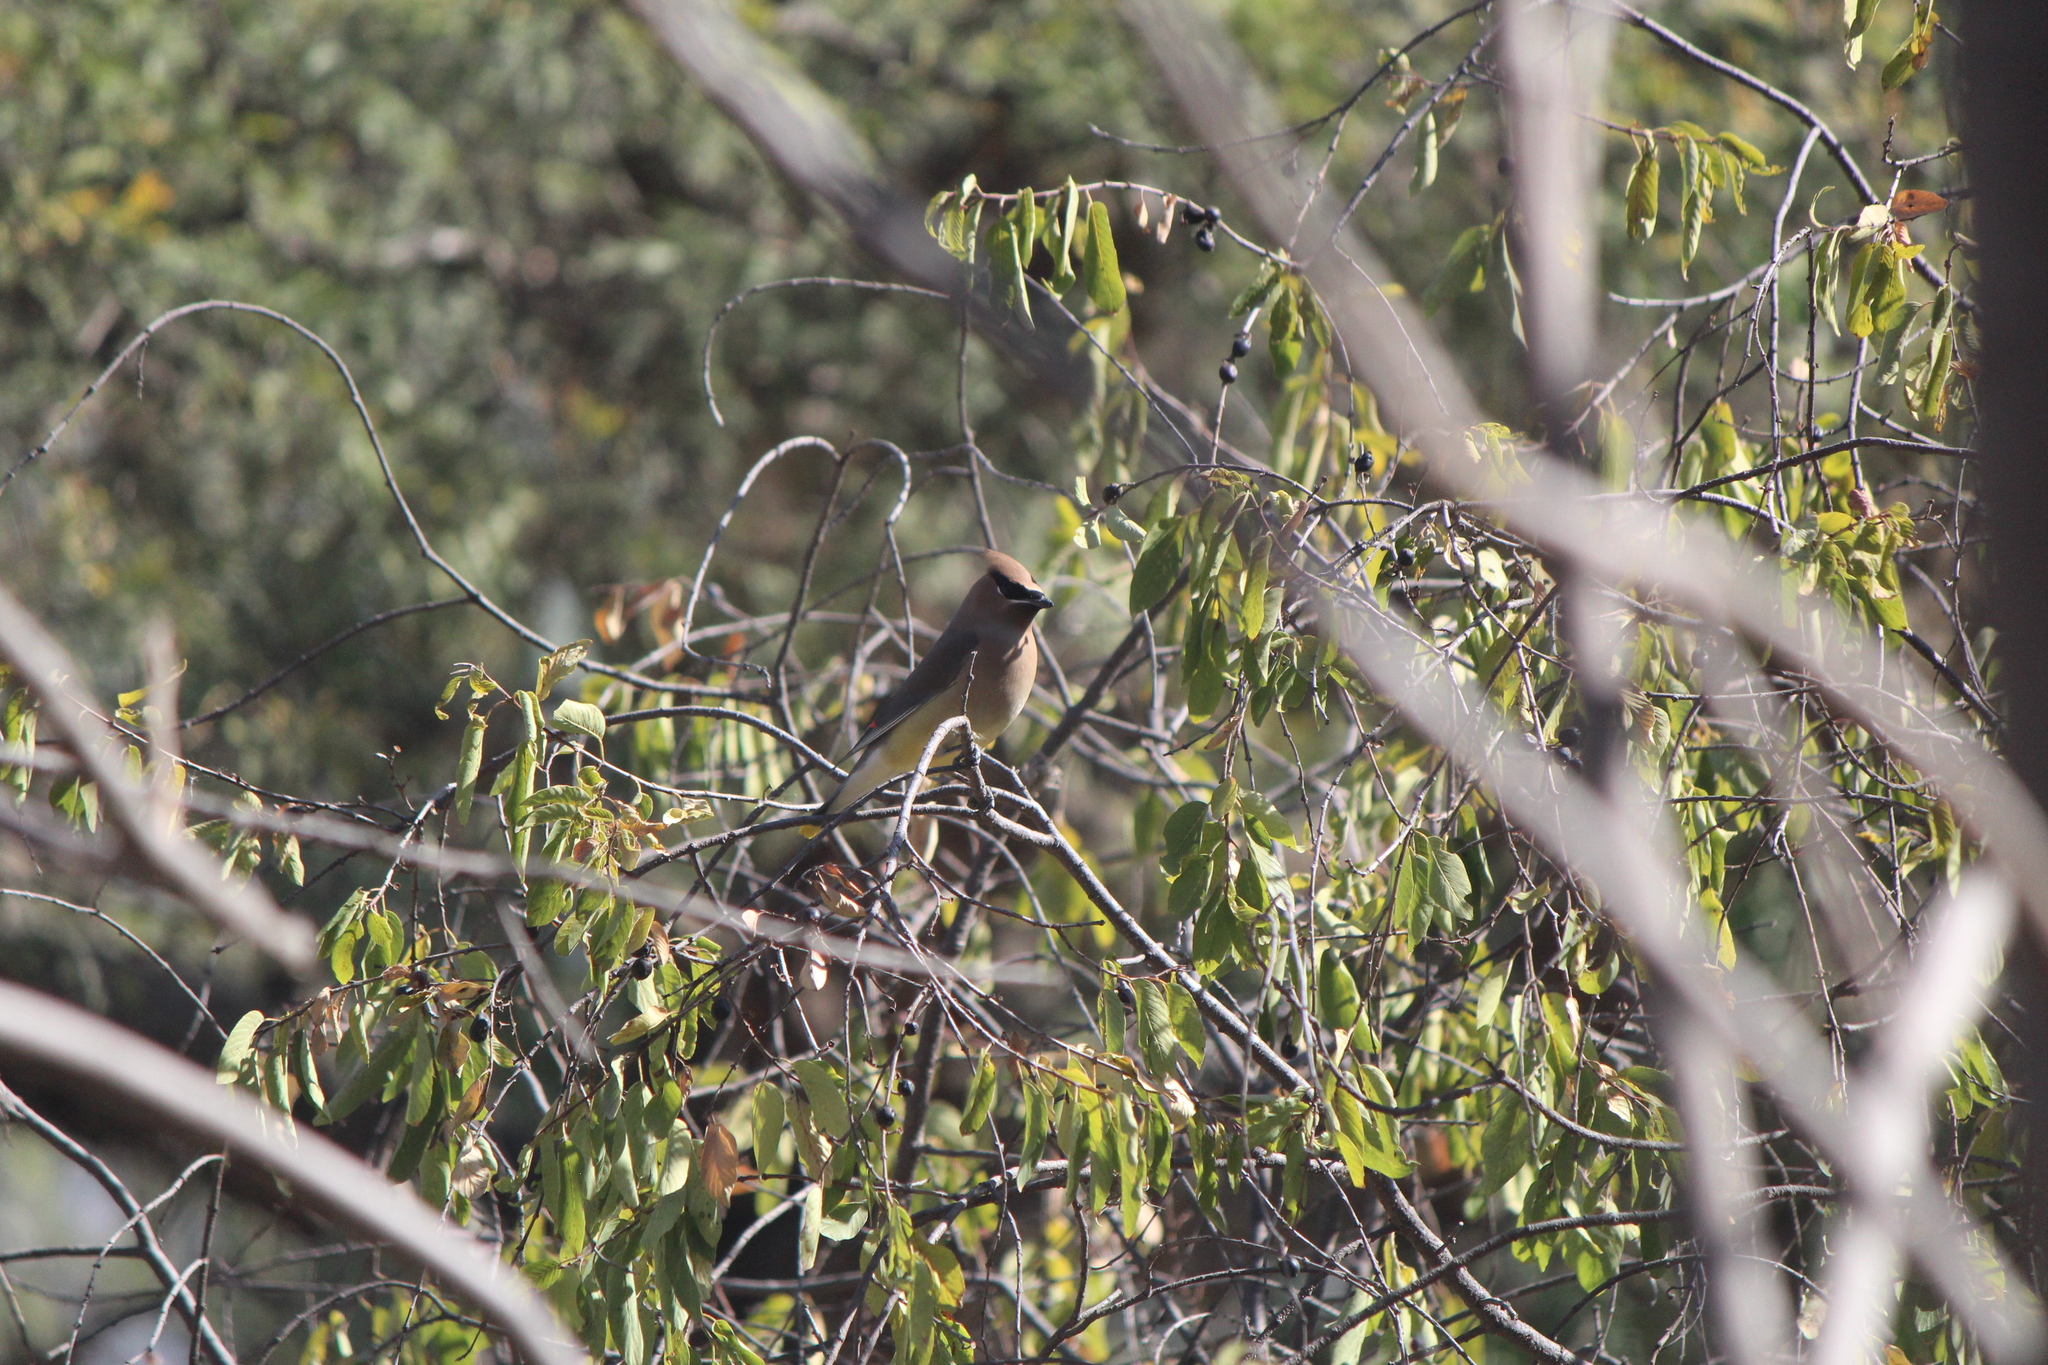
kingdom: Animalia
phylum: Chordata
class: Aves
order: Passeriformes
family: Bombycillidae
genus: Bombycilla
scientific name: Bombycilla cedrorum
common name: Cedar waxwing
